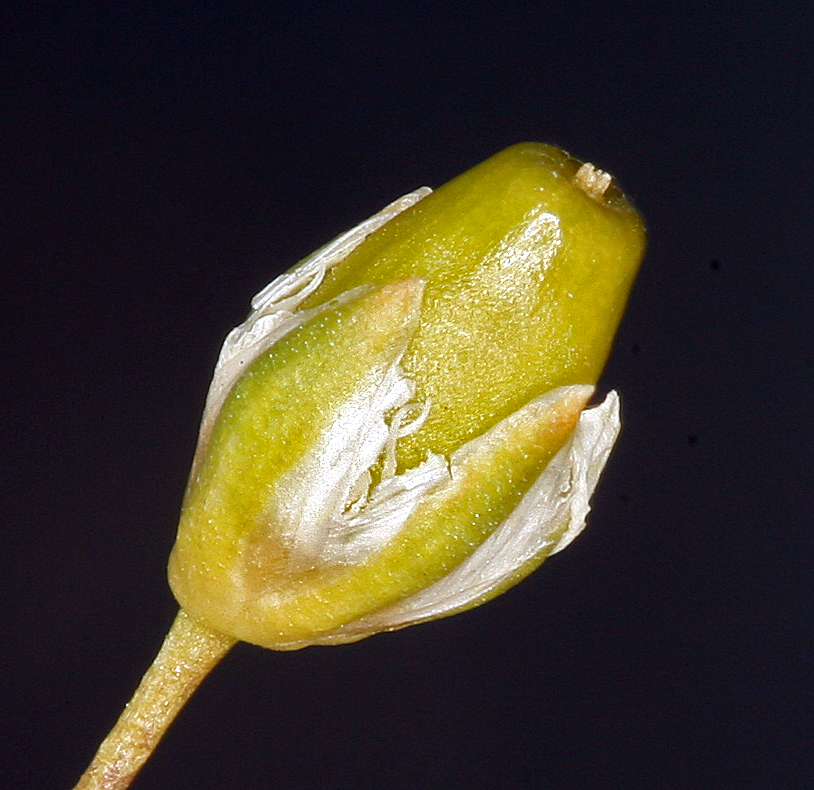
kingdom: Plantae
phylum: Tracheophyta
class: Magnoliopsida
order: Caryophyllales
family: Caryophyllaceae
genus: Eremogone
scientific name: Eremogone ferrisiae
